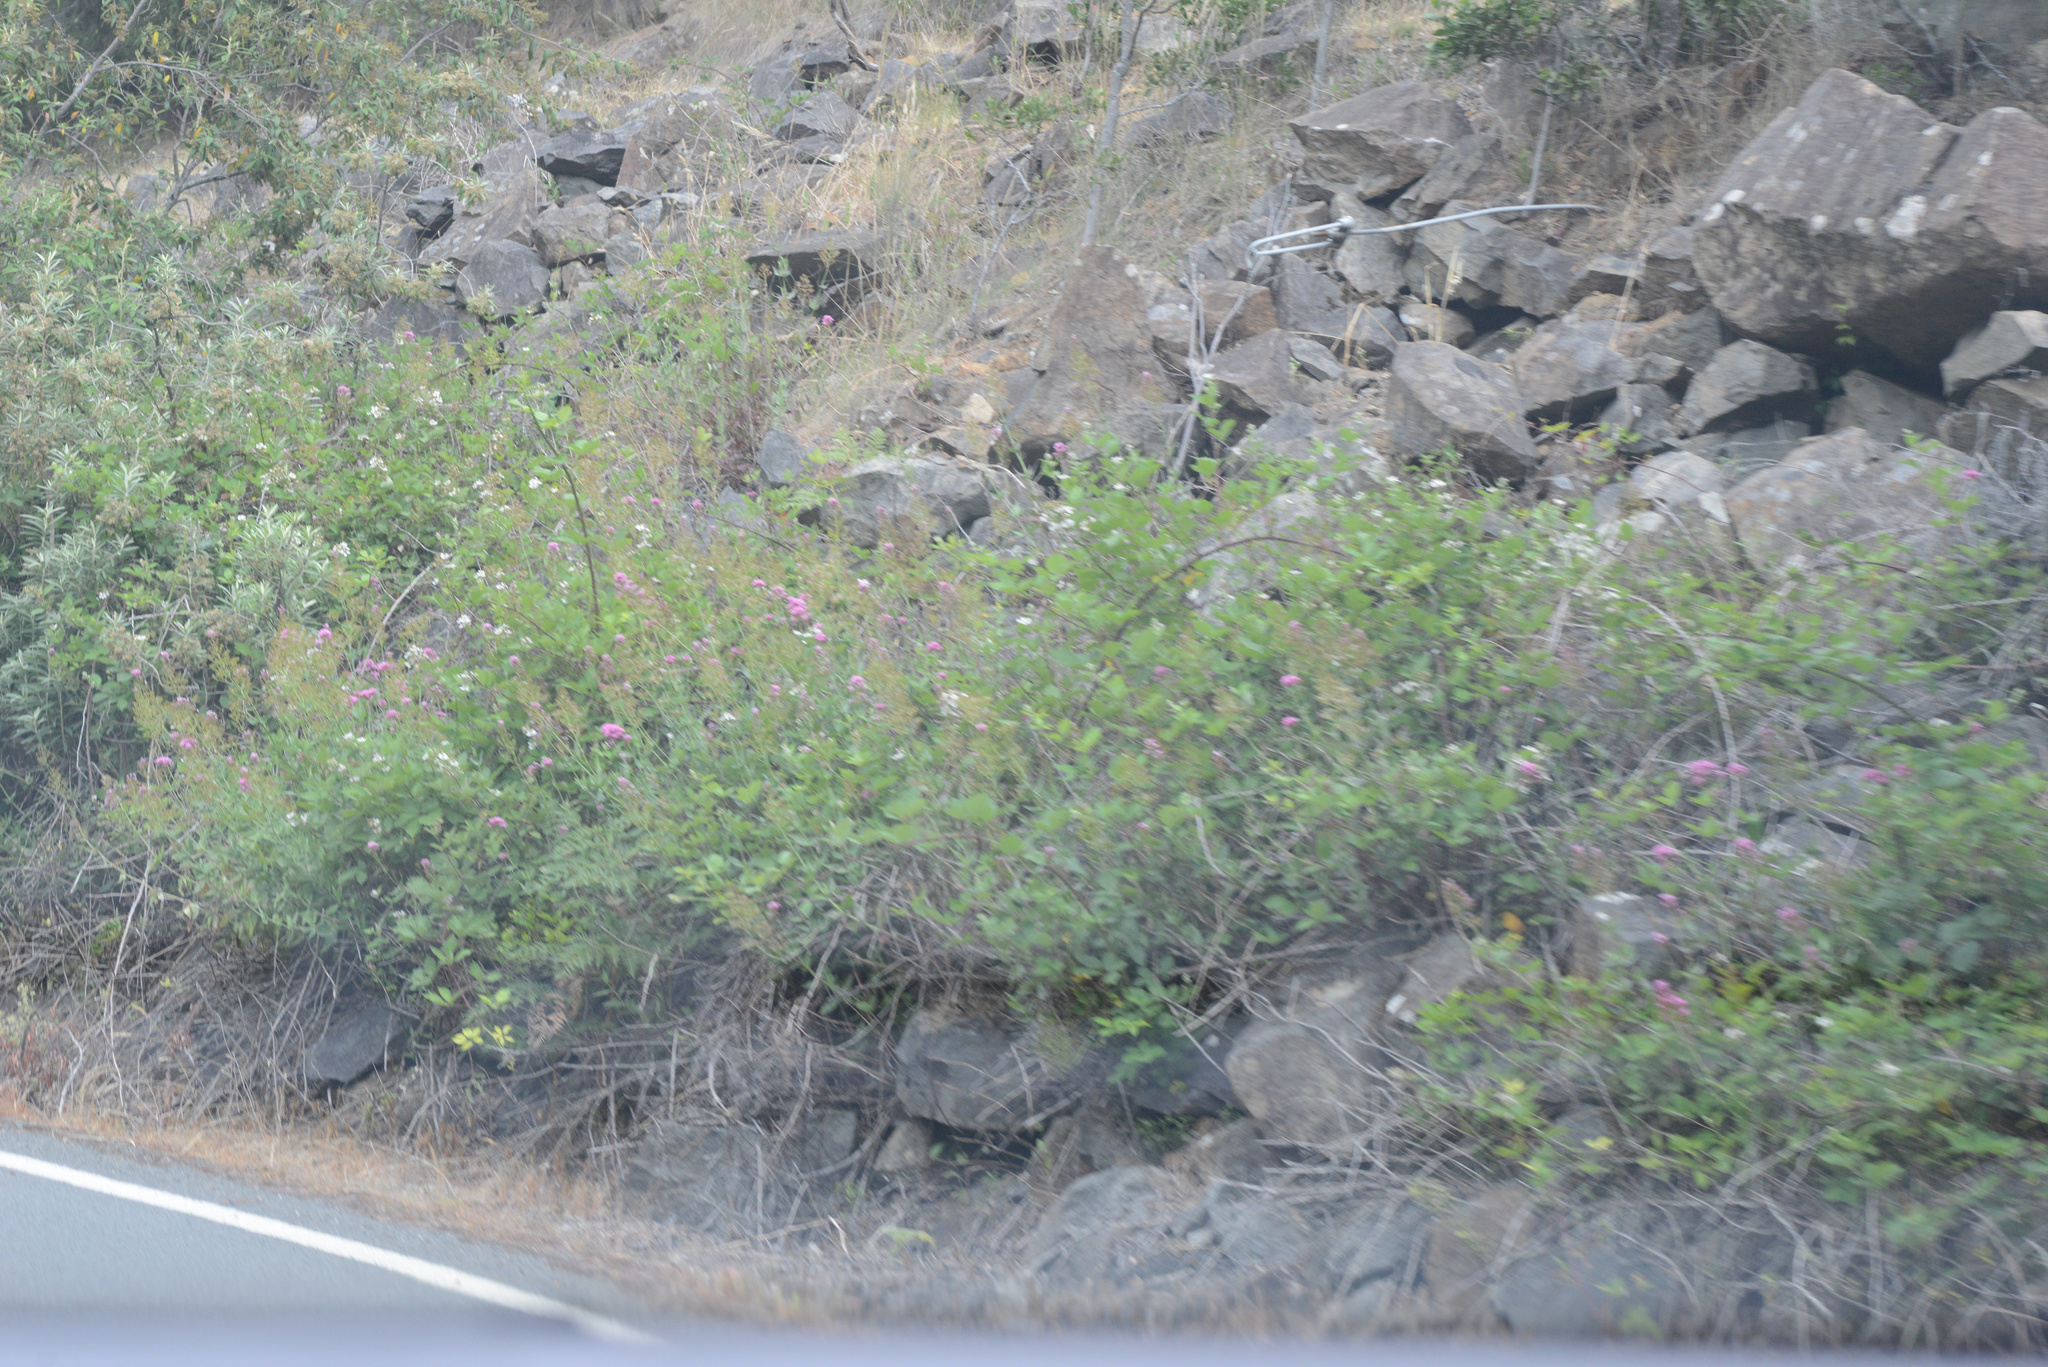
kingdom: Plantae
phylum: Tracheophyta
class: Magnoliopsida
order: Dipsacales
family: Caprifoliaceae
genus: Centranthus
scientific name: Centranthus ruber
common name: Red valerian
